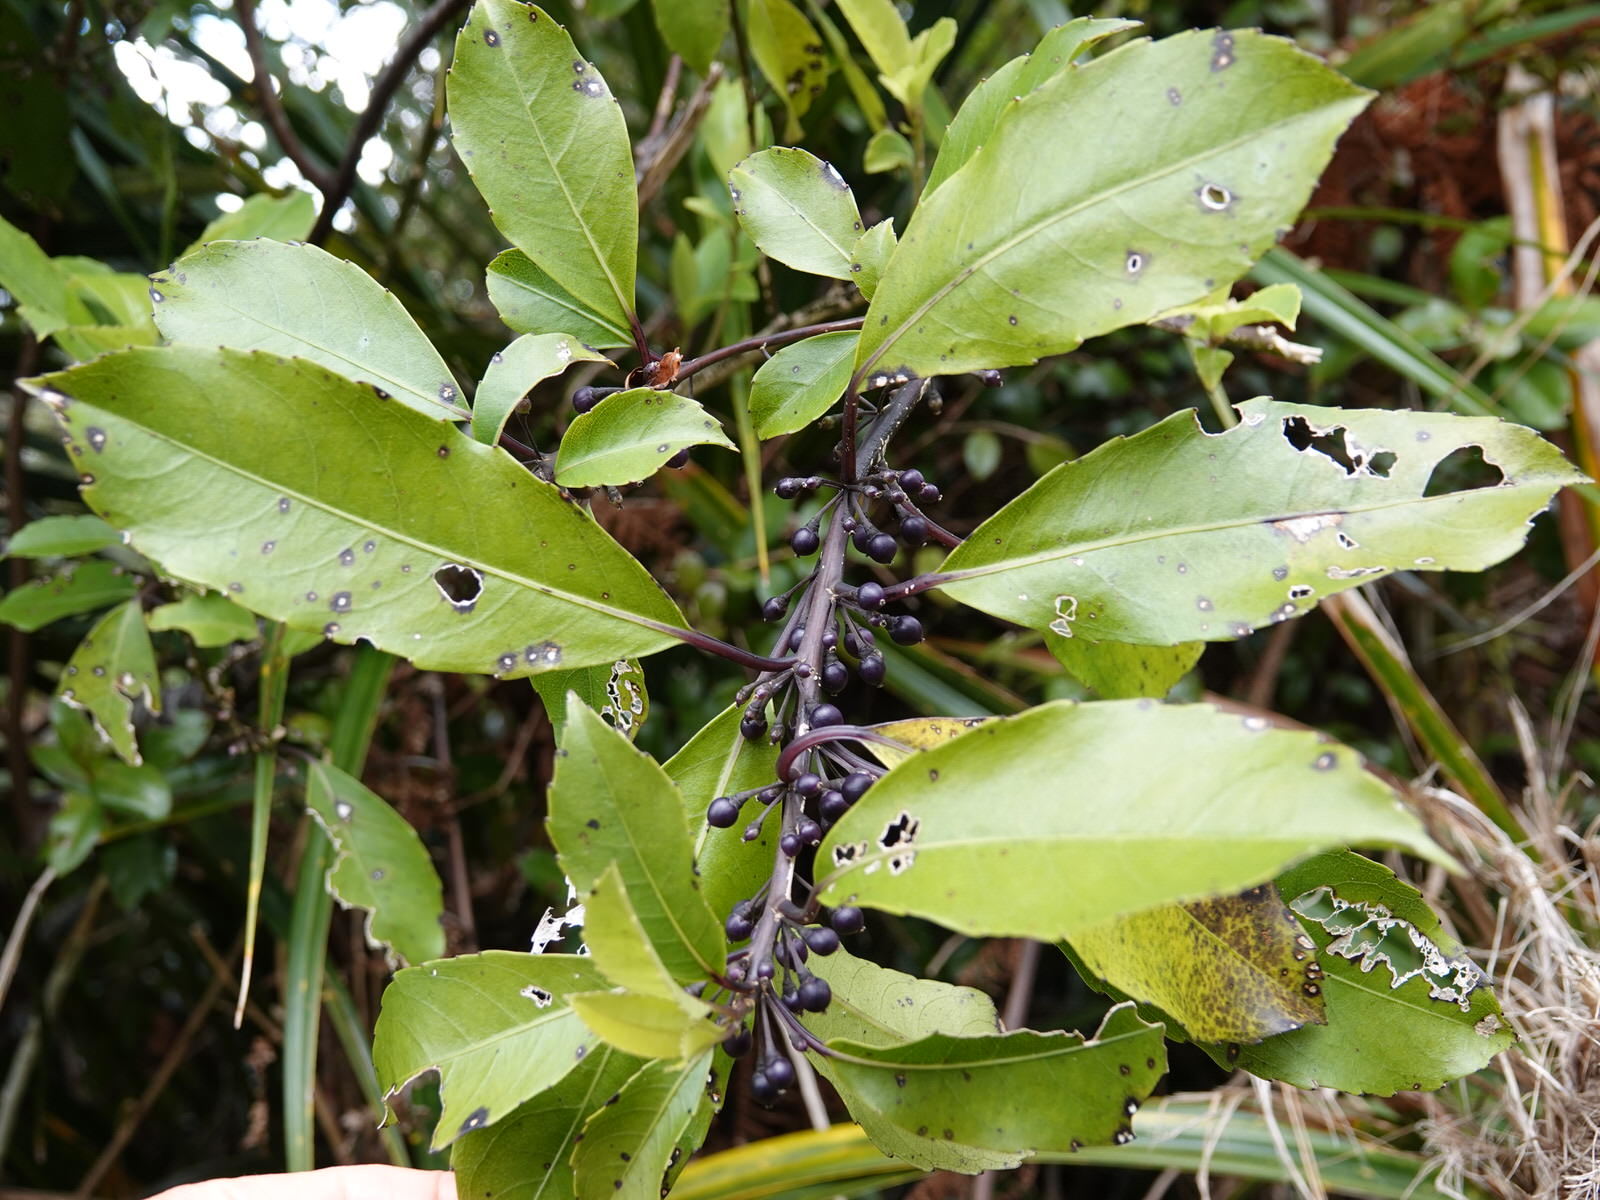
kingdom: Plantae
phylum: Tracheophyta
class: Magnoliopsida
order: Malpighiales
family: Violaceae
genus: Melicytus
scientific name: Melicytus macrophyllus
